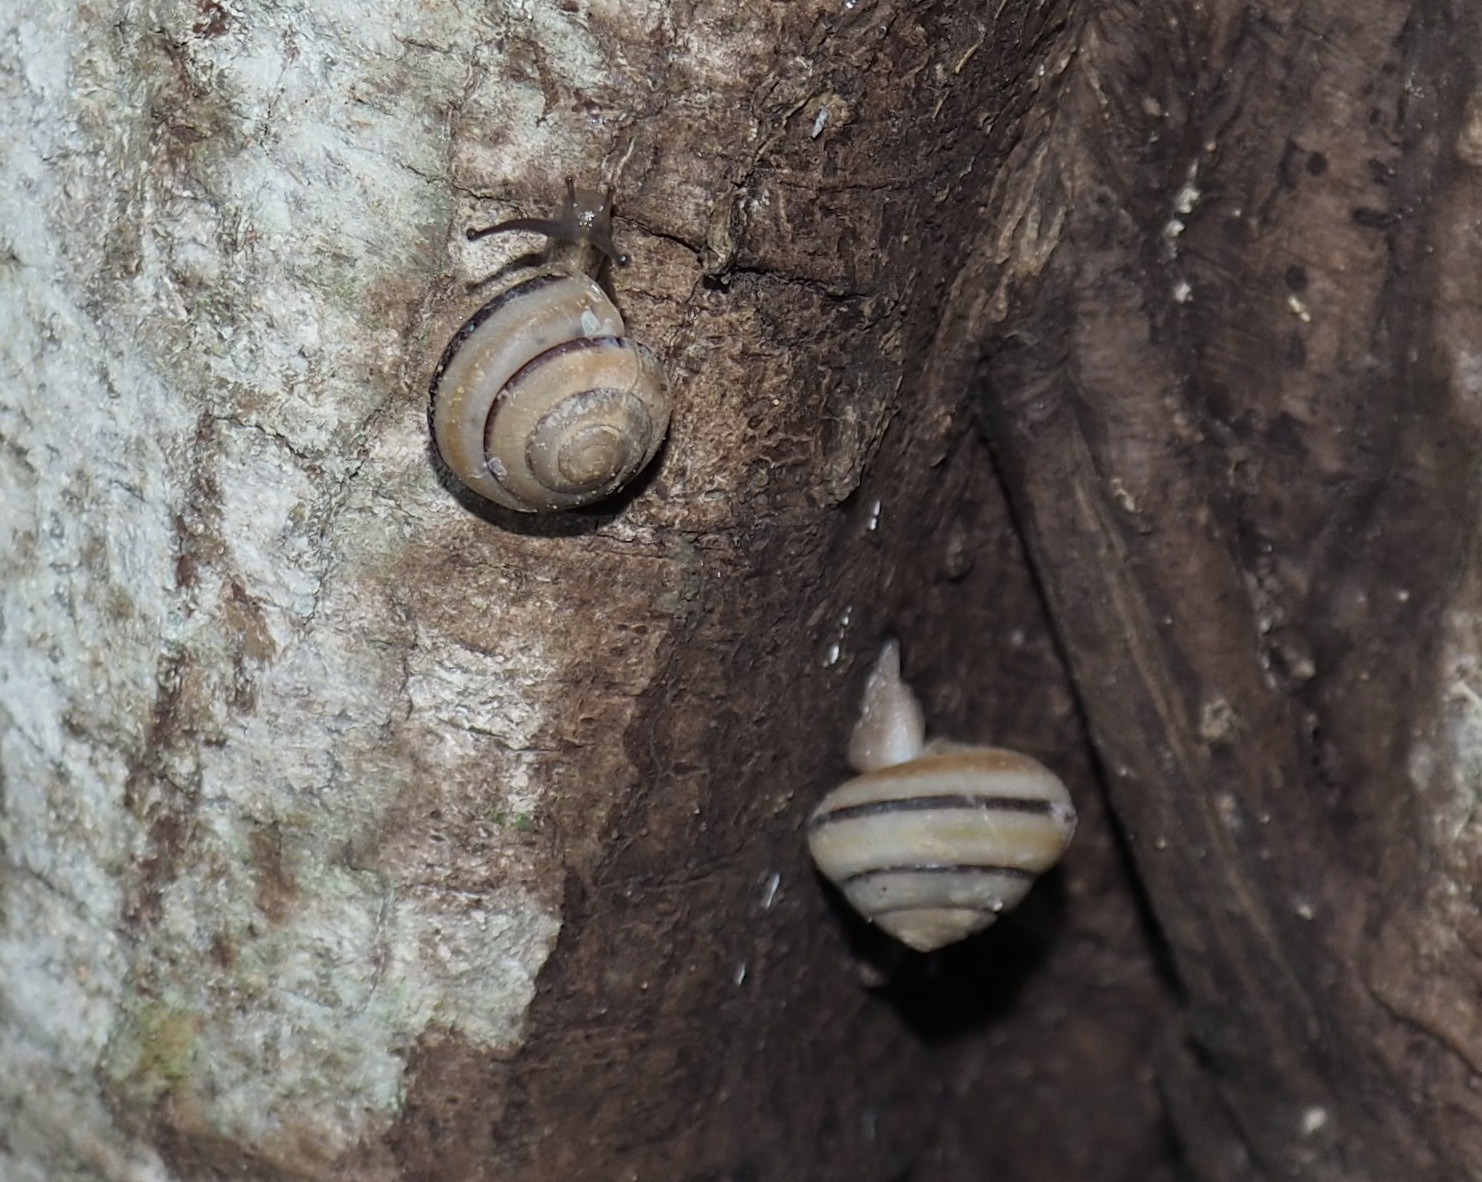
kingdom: Animalia
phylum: Mollusca
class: Gastropoda
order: Stylommatophora
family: Camaenidae
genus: Satsuma
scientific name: Satsuma succincta
